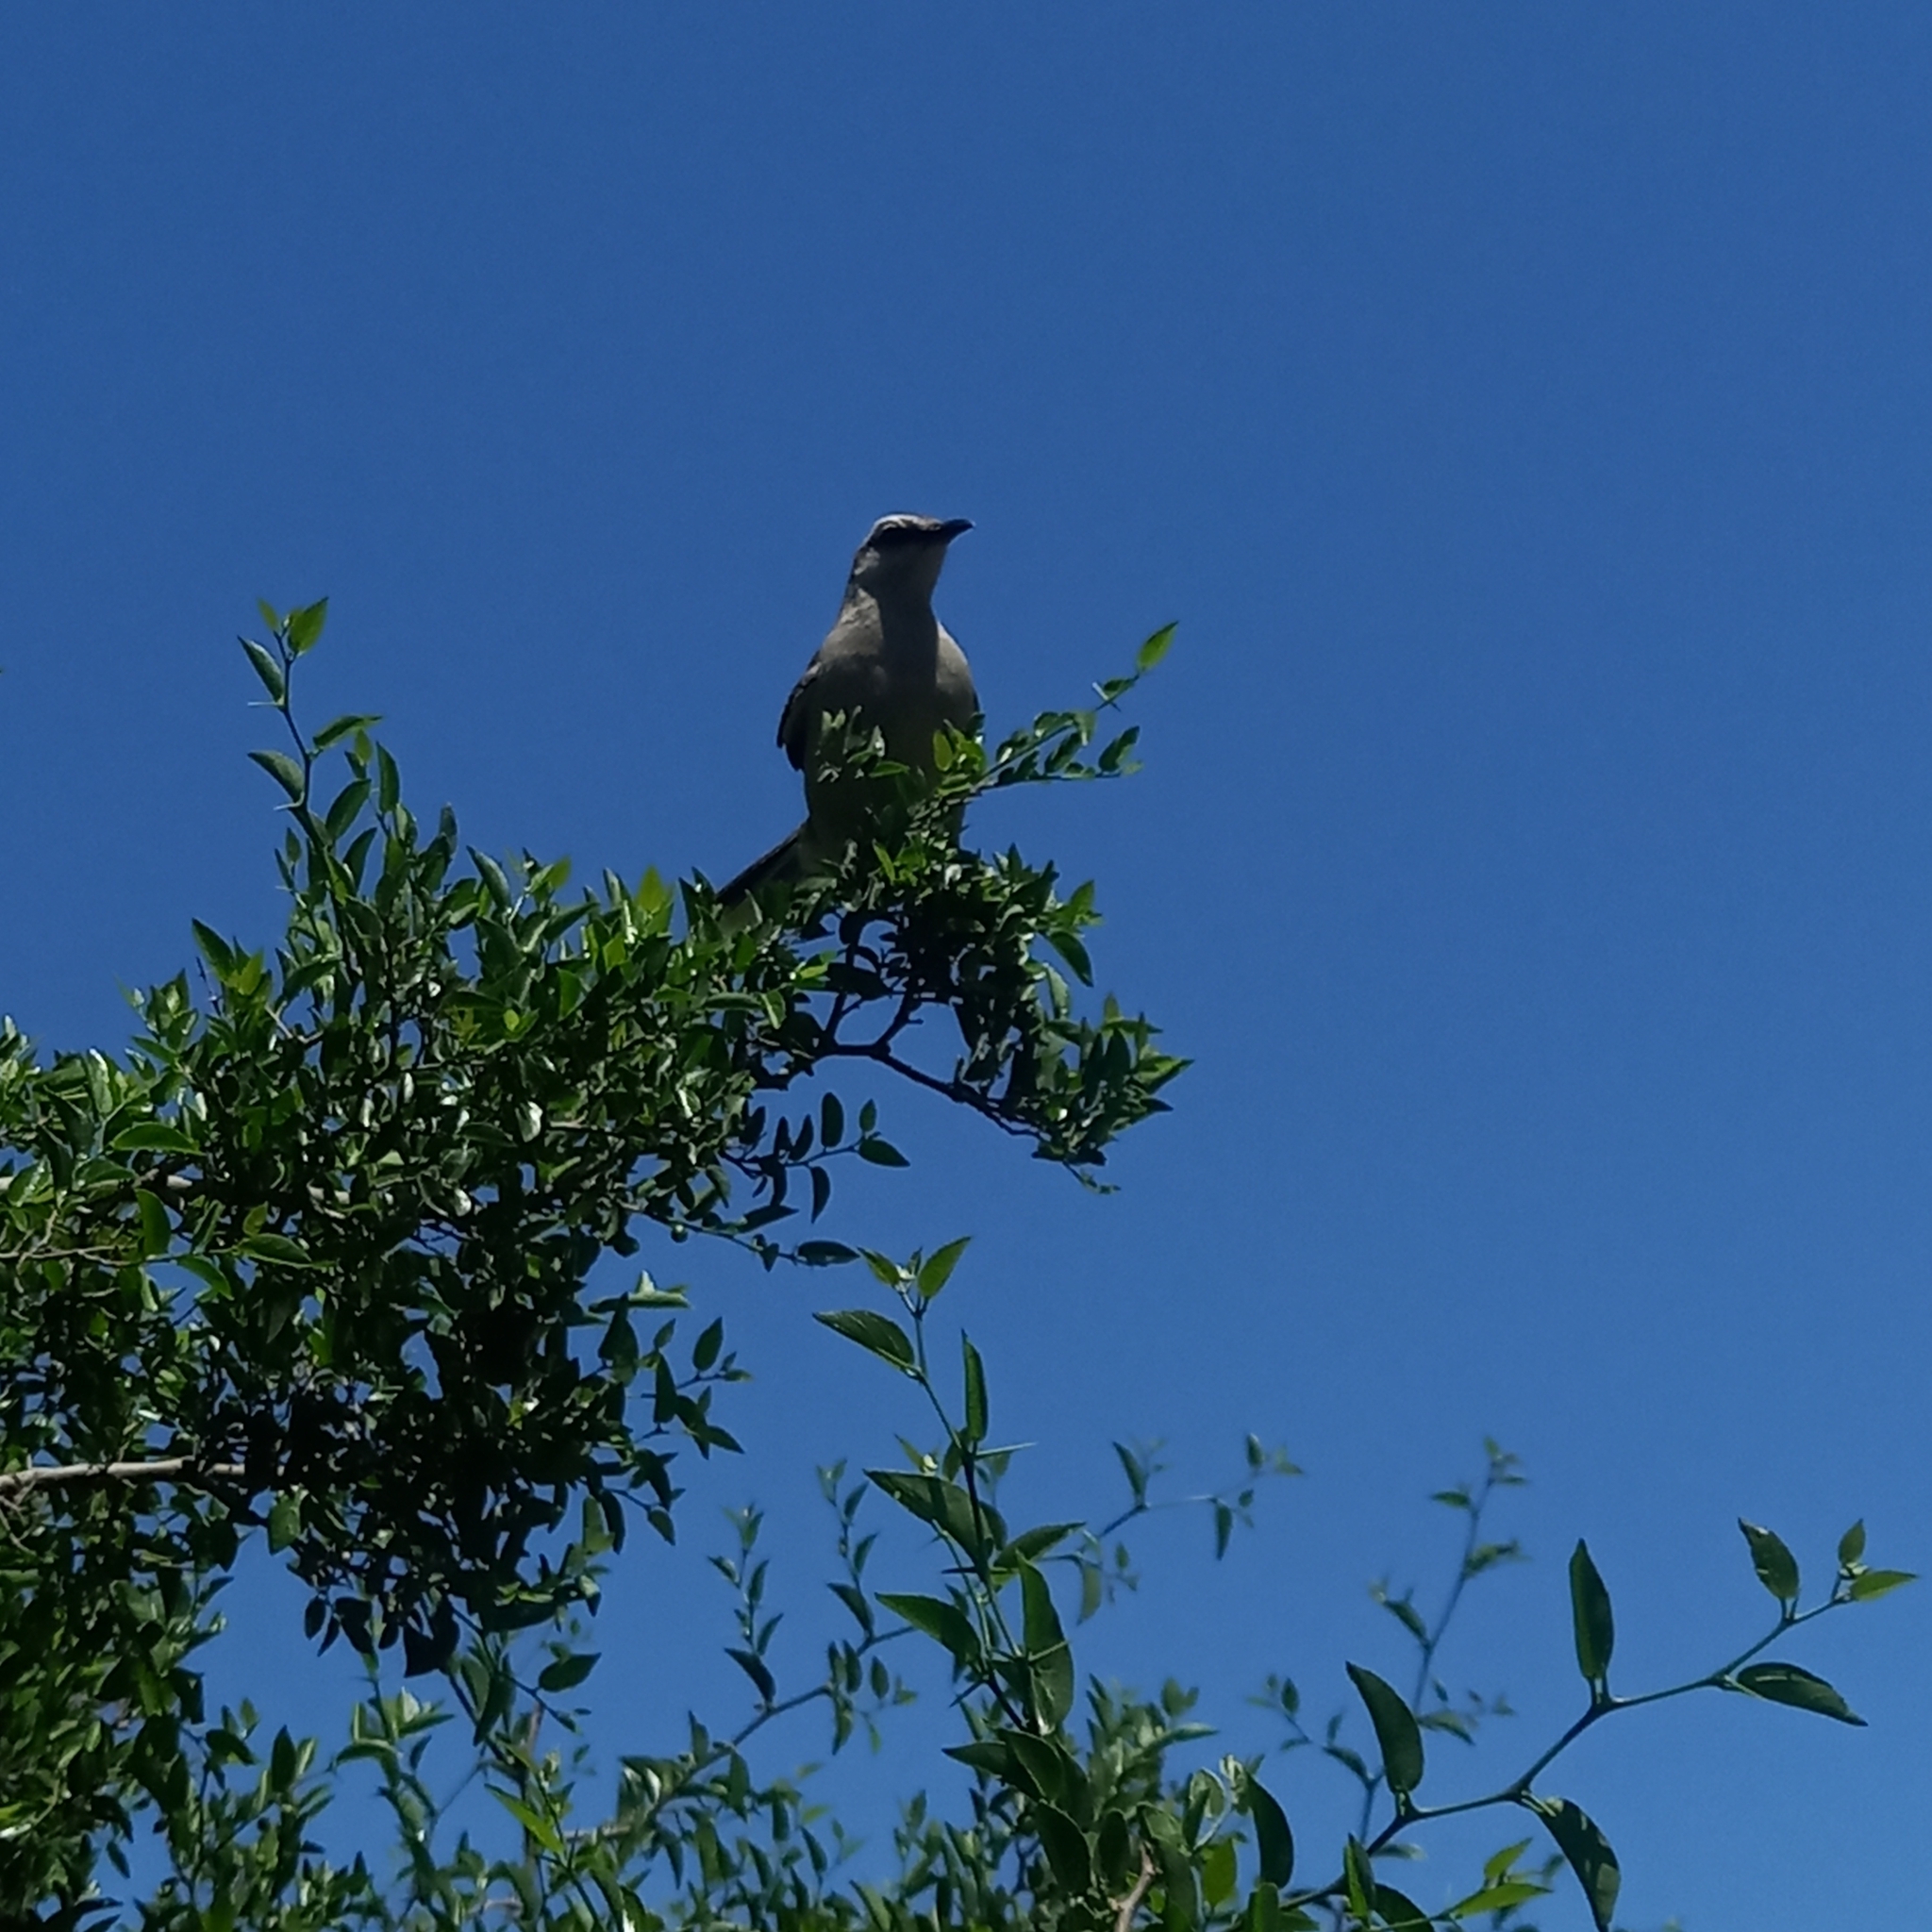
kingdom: Animalia
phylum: Chordata
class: Aves
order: Passeriformes
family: Mimidae
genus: Mimus
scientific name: Mimus saturninus
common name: Chalk-browed mockingbird
